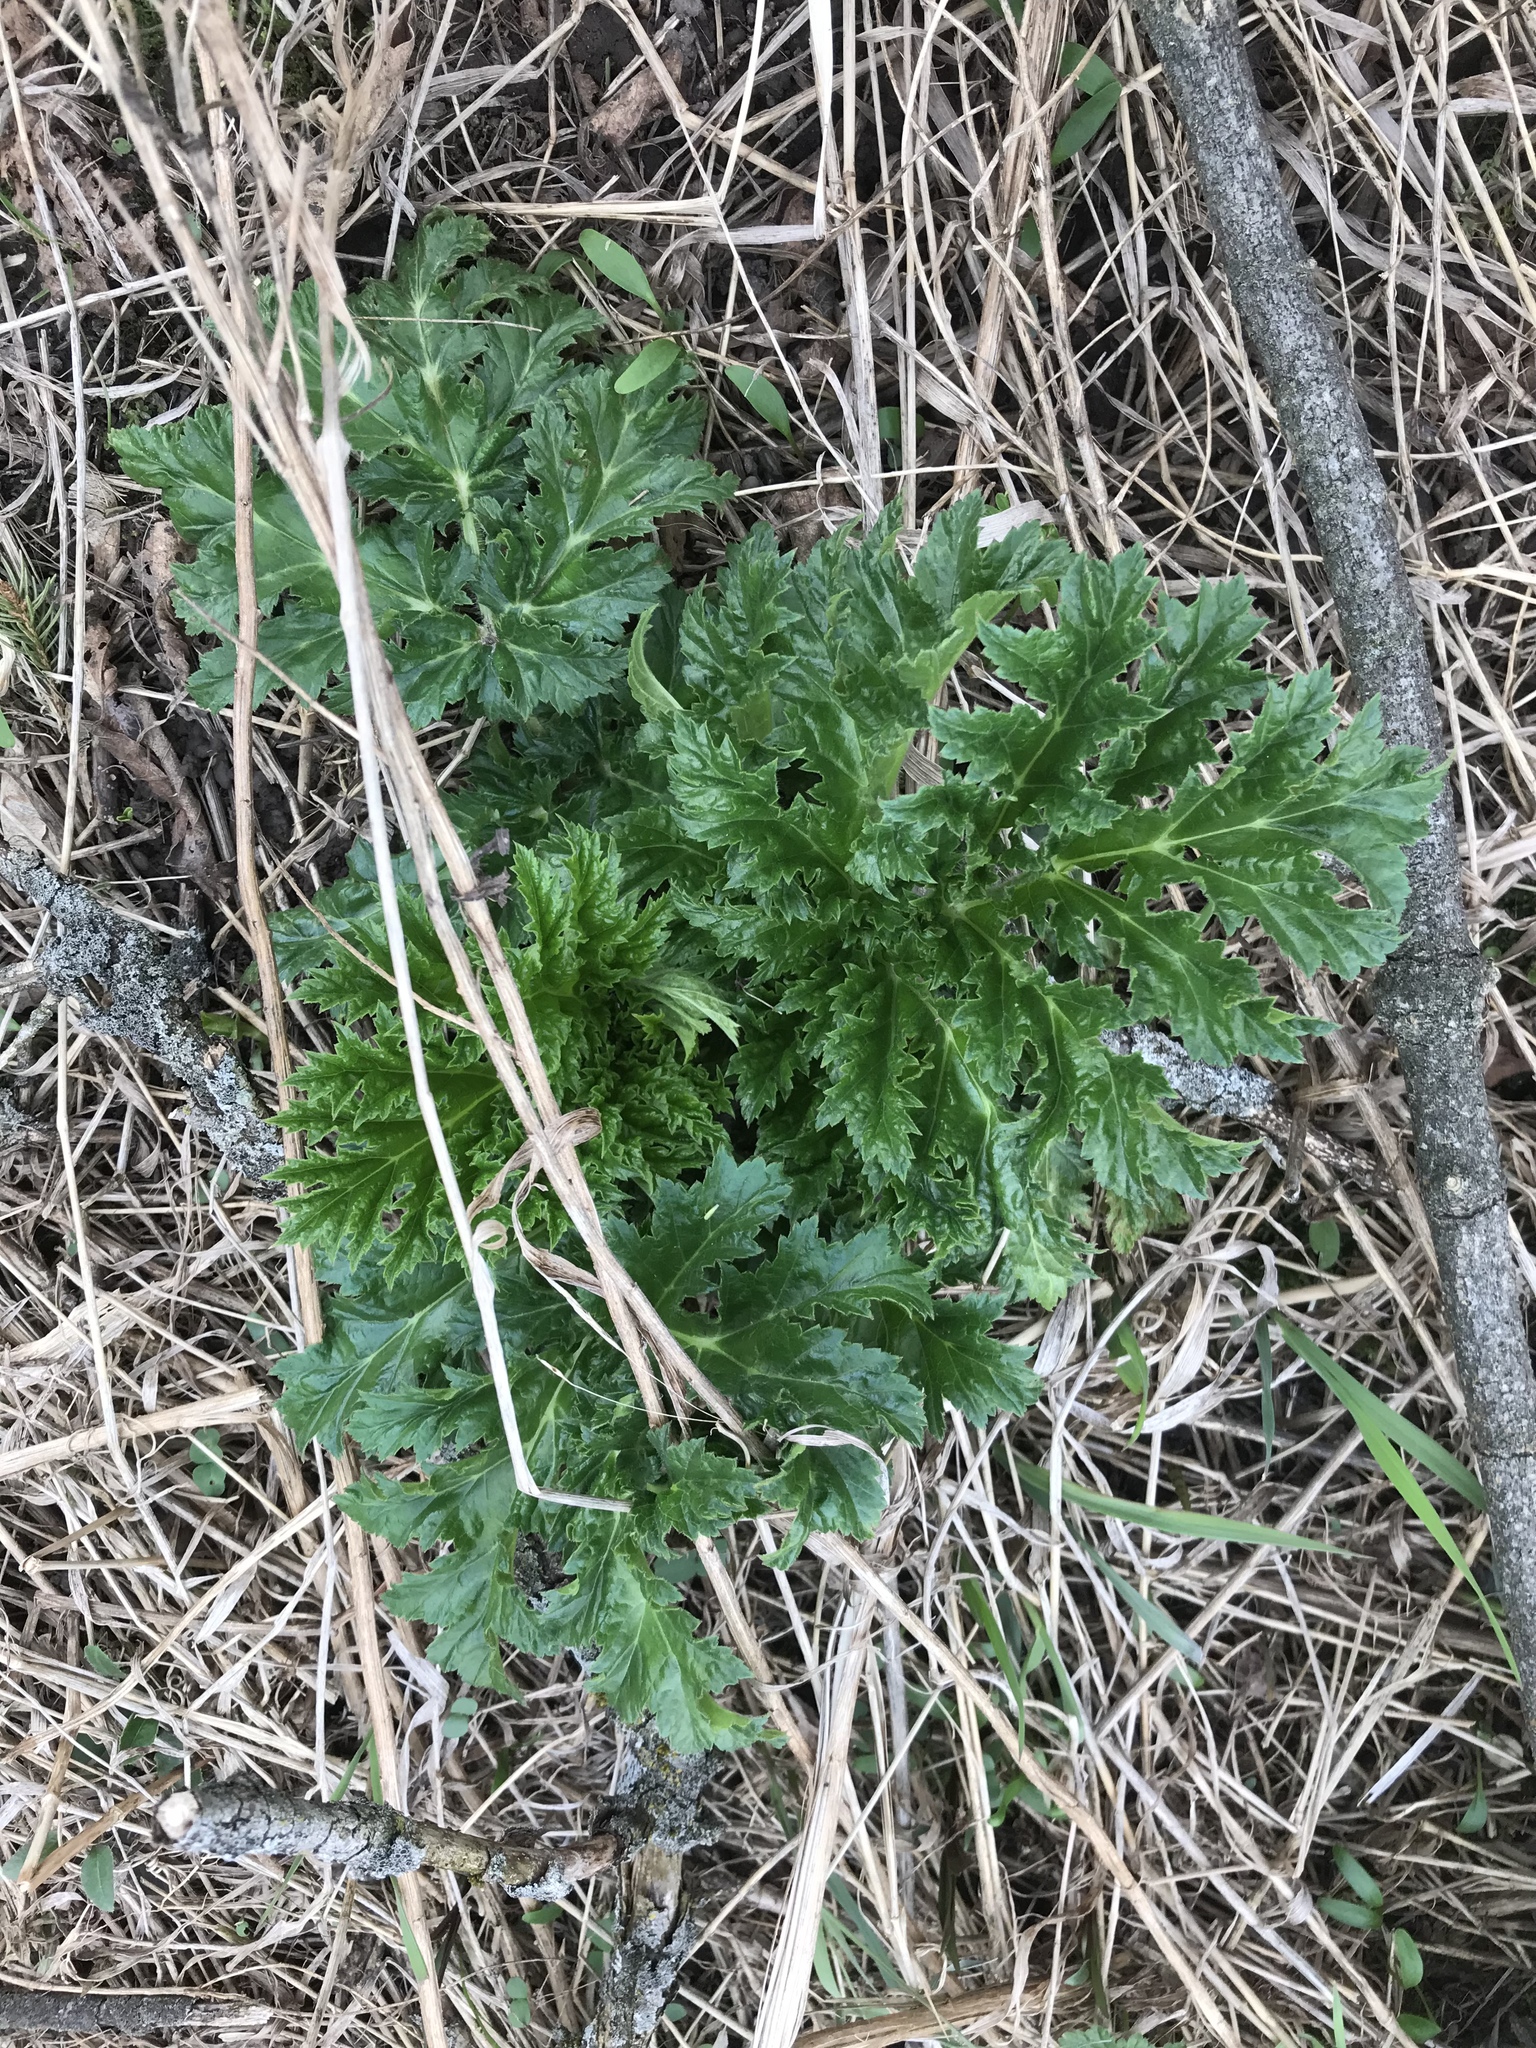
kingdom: Plantae
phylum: Tracheophyta
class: Magnoliopsida
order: Apiales
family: Apiaceae
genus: Heracleum
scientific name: Heracleum mantegazzianum
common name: Giant hogweed
